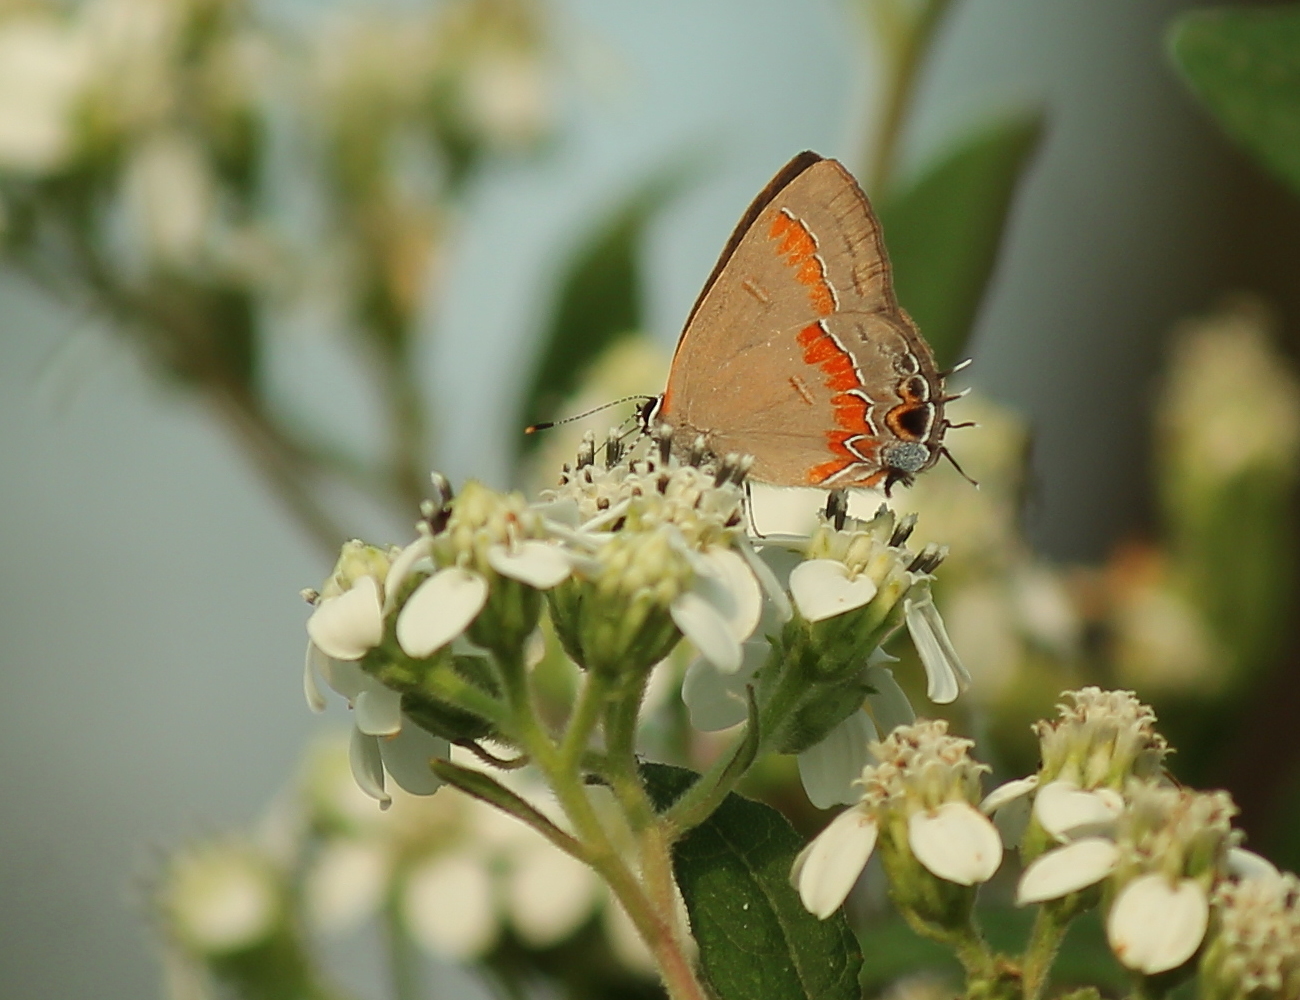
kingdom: Animalia
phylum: Arthropoda
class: Insecta
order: Lepidoptera
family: Lycaenidae
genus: Calycopis
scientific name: Calycopis cecrops
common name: Red-banded hairstreak
